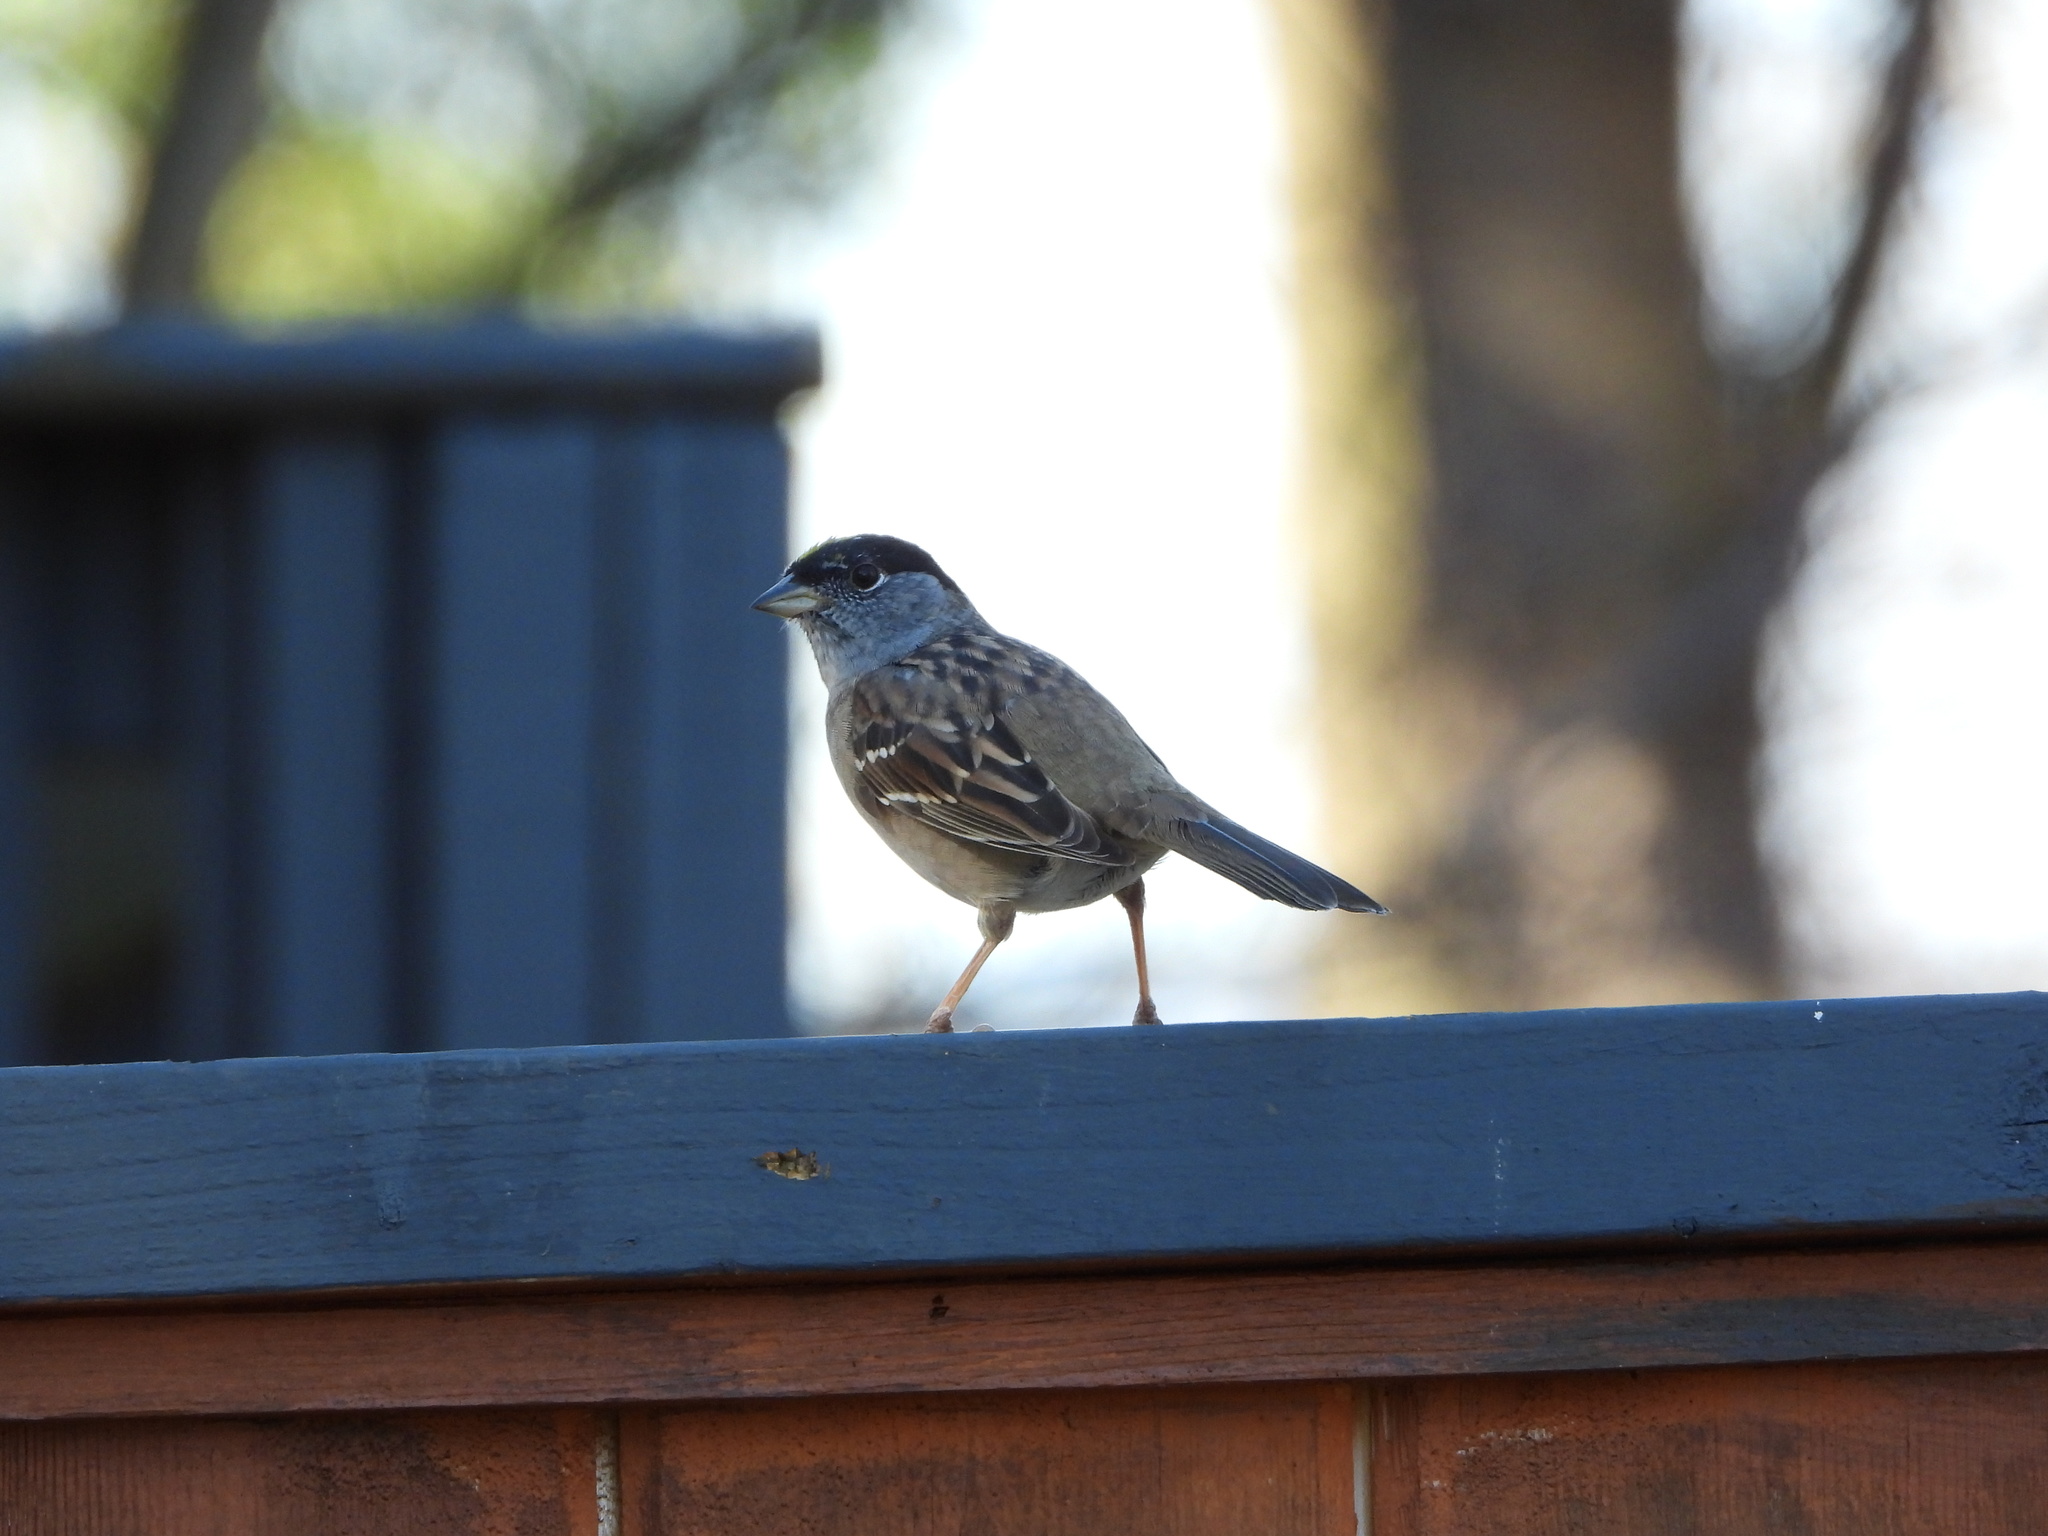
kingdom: Animalia
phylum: Chordata
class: Aves
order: Passeriformes
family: Passerellidae
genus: Zonotrichia
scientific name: Zonotrichia atricapilla
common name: Golden-crowned sparrow
